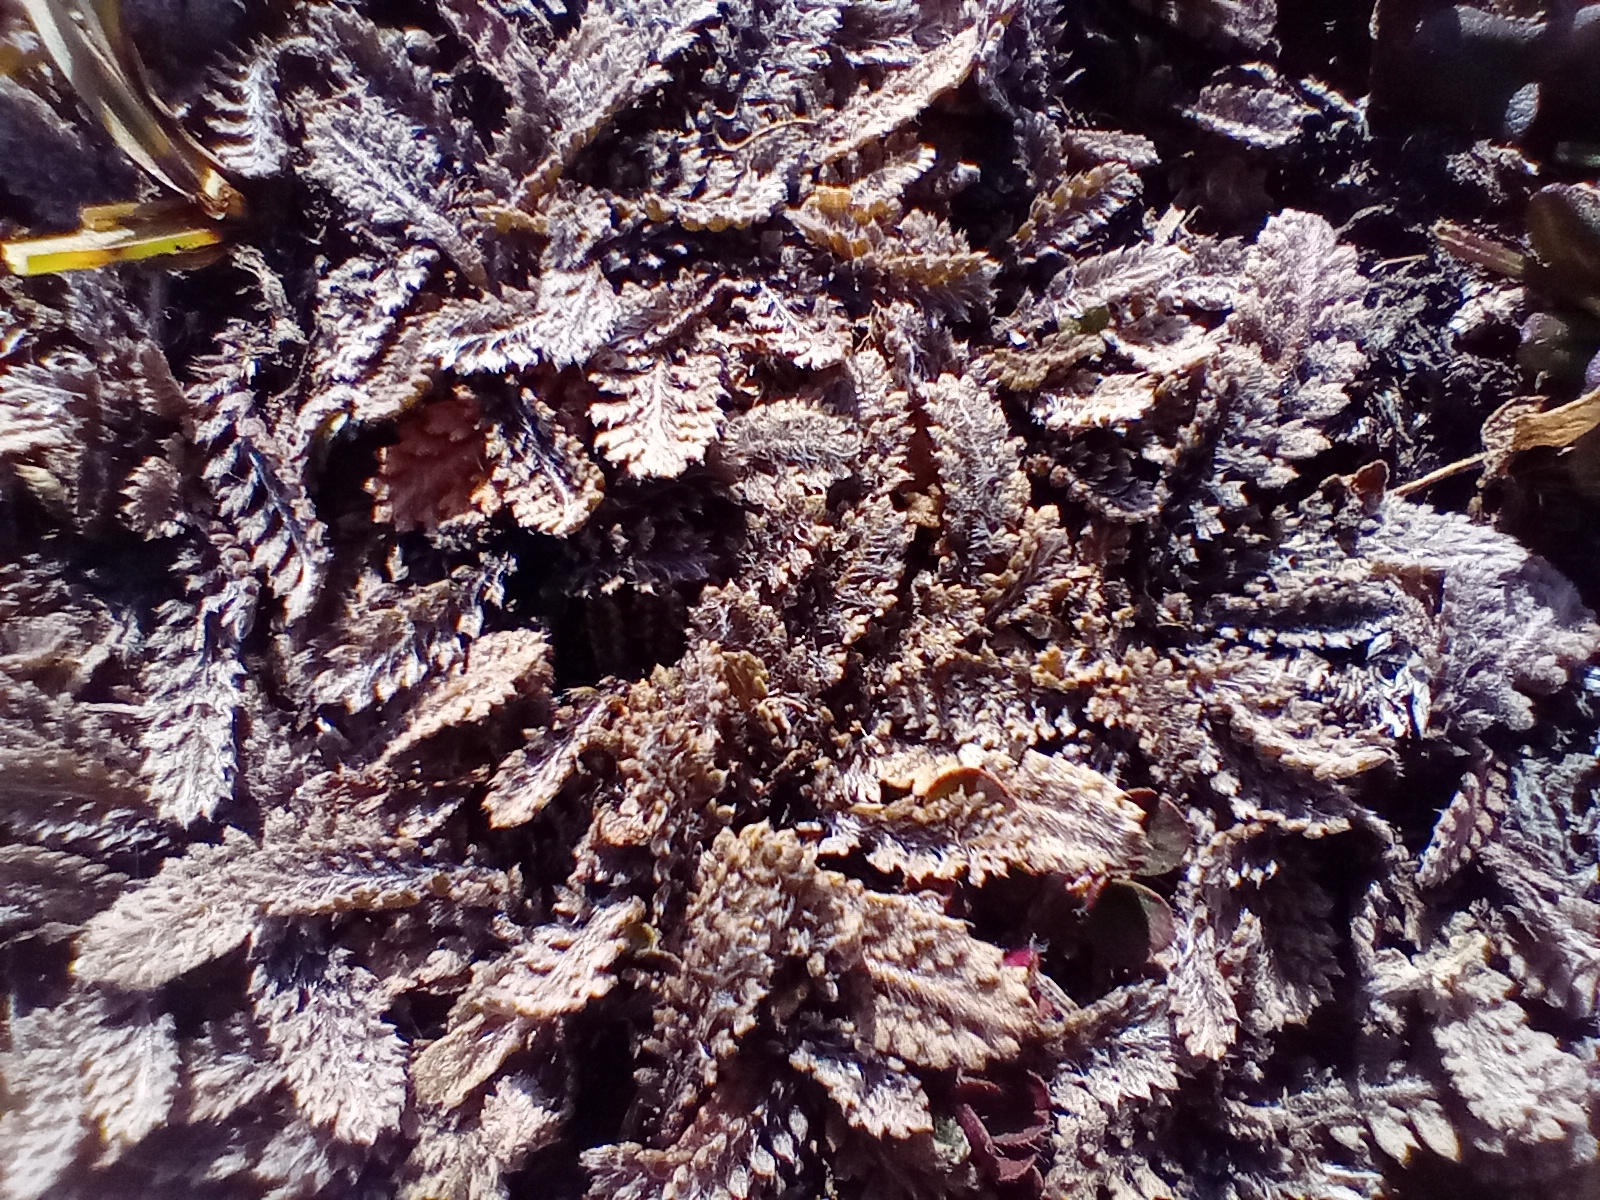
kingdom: Plantae
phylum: Tracheophyta
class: Magnoliopsida
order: Asterales
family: Asteraceae
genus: Leptinella
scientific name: Leptinella serrulata
